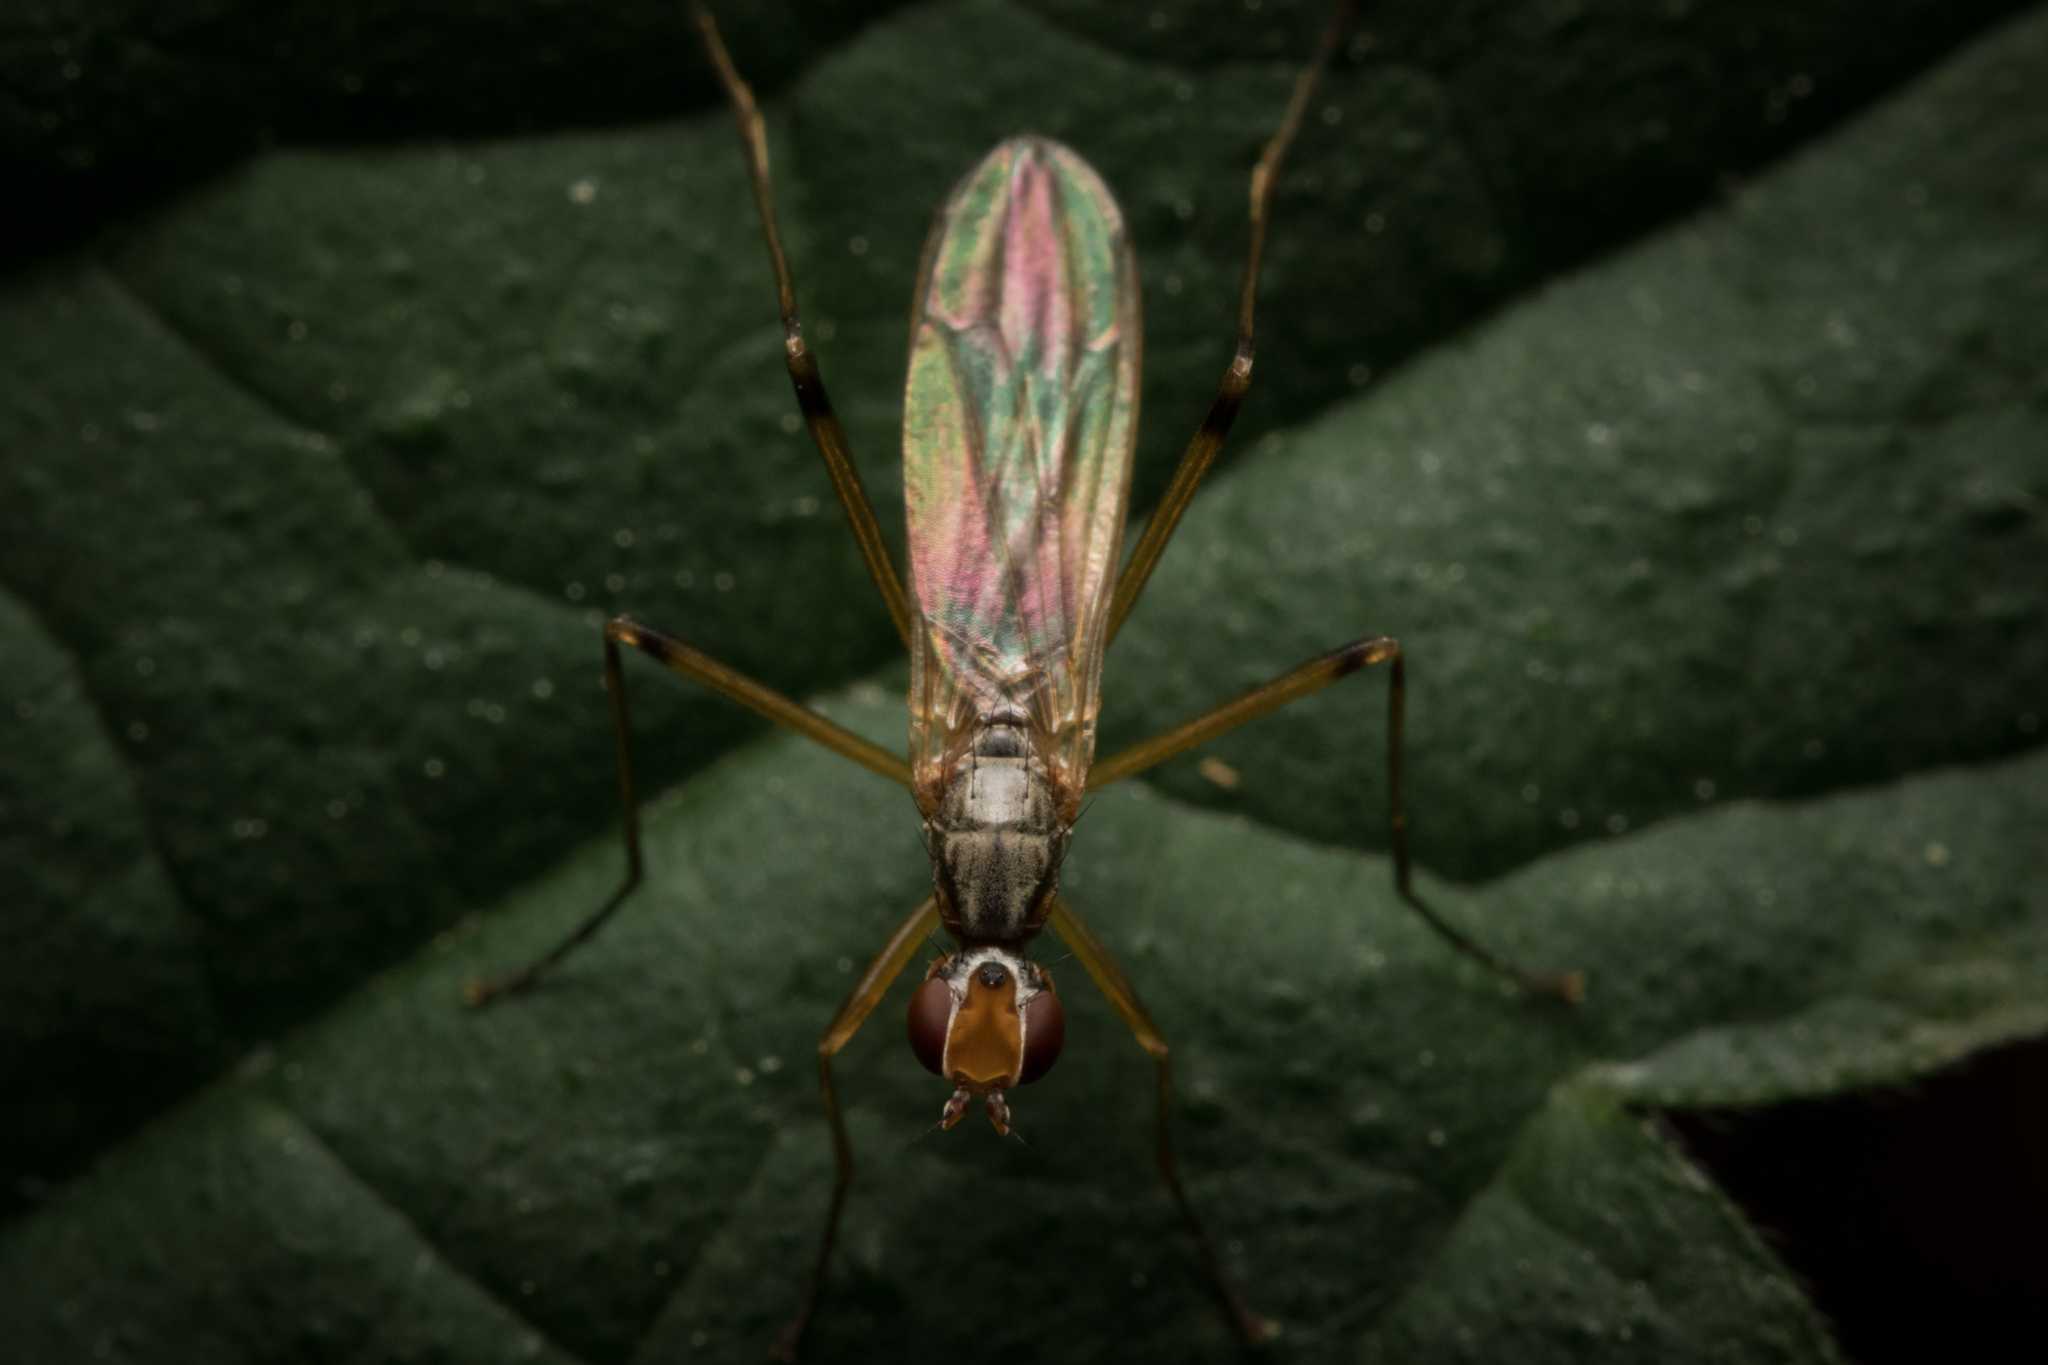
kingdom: Animalia
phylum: Arthropoda
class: Insecta
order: Diptera
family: Micropezidae
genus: Compsobata
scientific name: Compsobata cibaria
